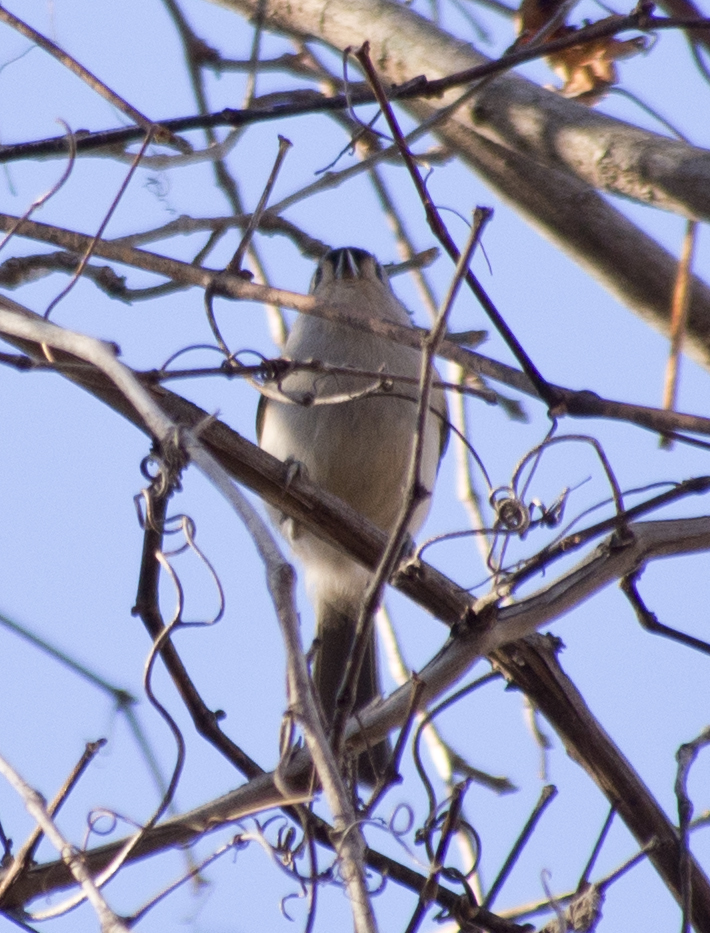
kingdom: Animalia
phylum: Chordata
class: Aves
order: Passeriformes
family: Paridae
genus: Baeolophus
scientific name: Baeolophus bicolor
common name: Tufted titmouse
